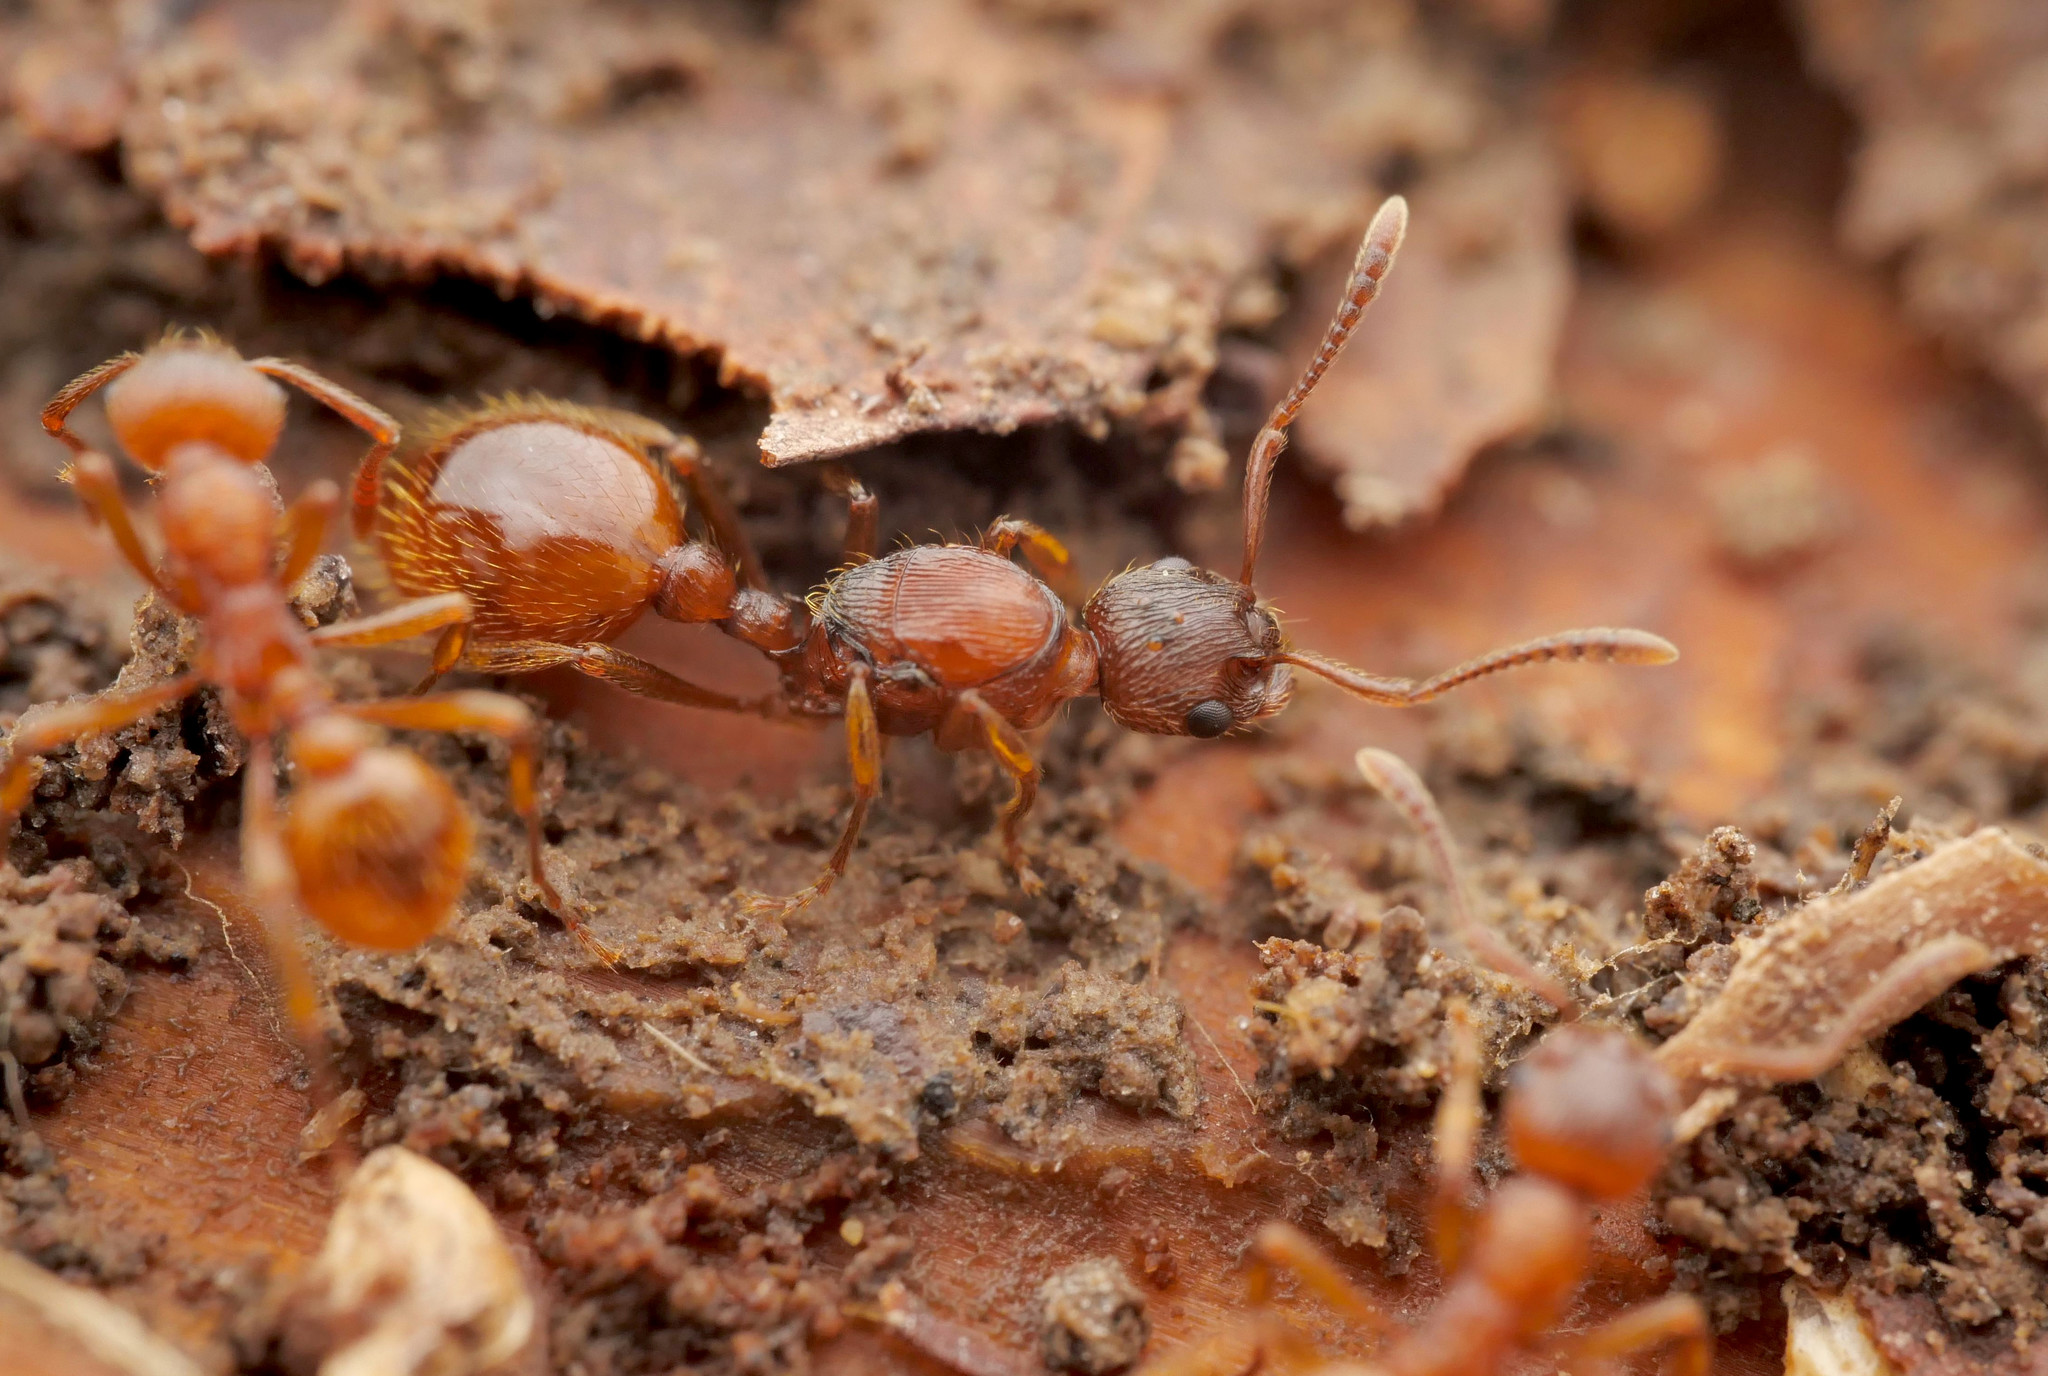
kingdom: Animalia
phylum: Arthropoda
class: Insecta
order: Hymenoptera
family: Formicidae
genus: Myrmica
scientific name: Myrmica rubra
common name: European fire ant
